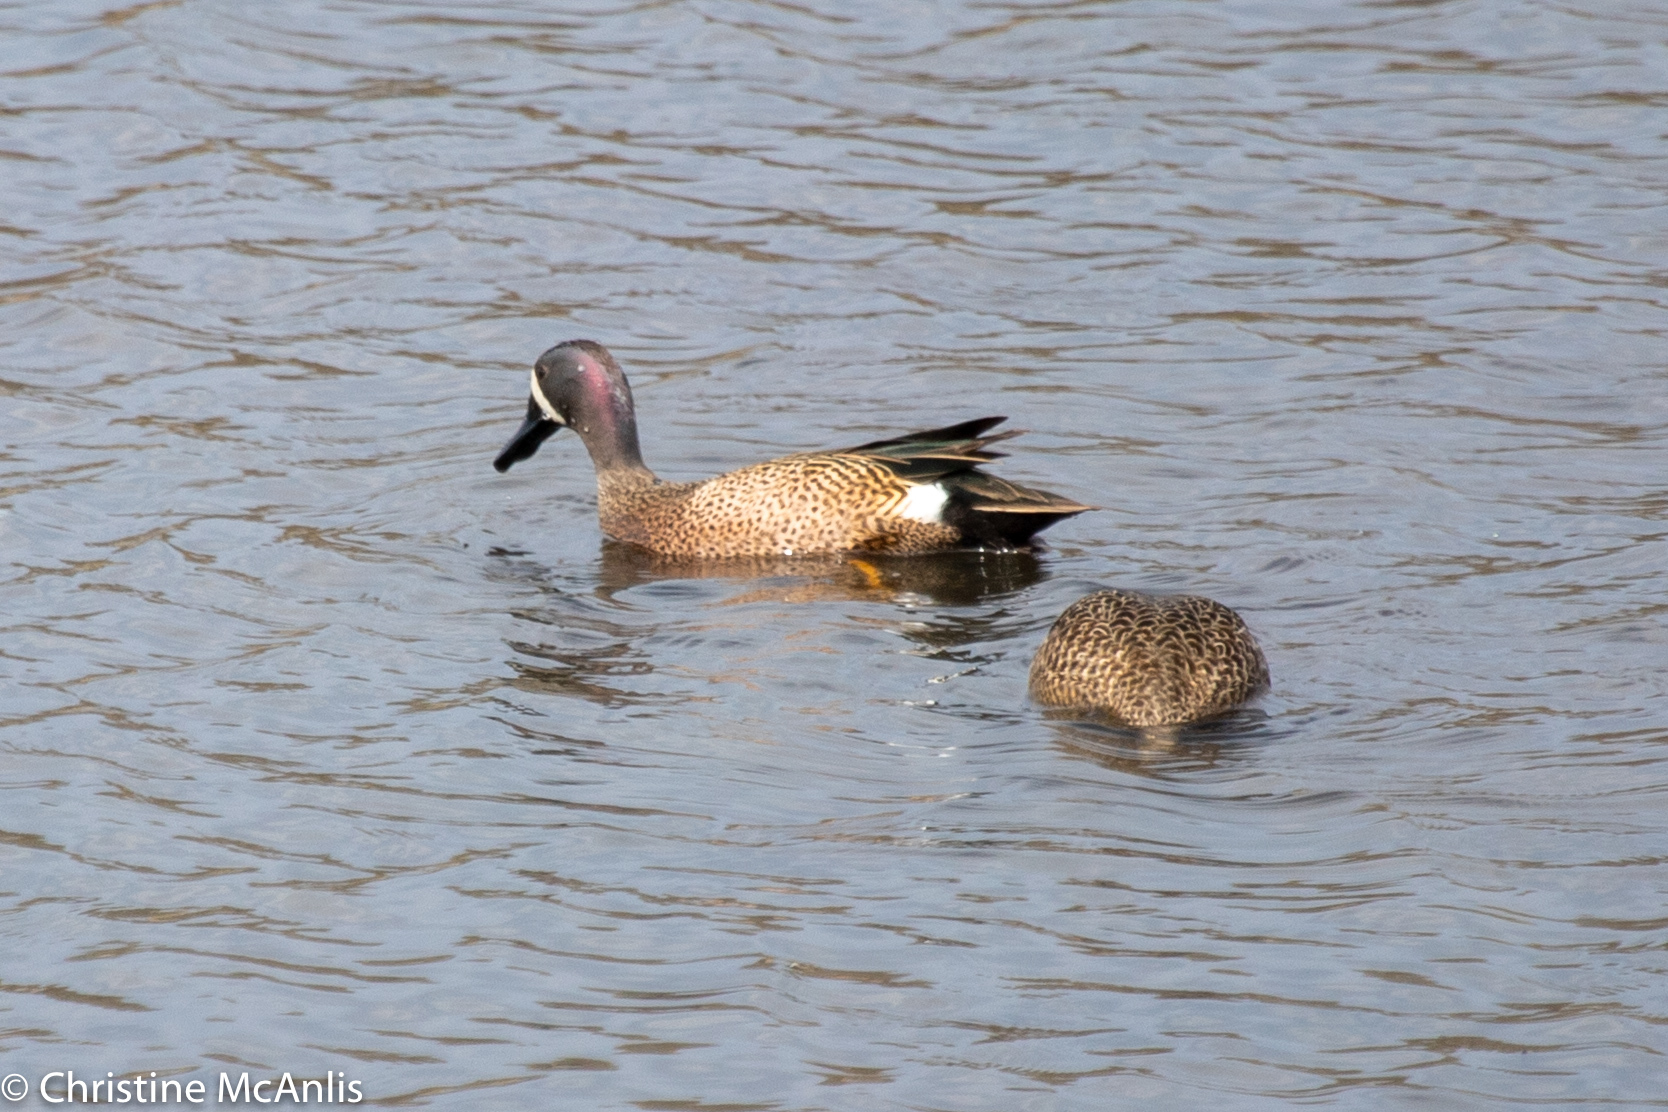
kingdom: Animalia
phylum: Chordata
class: Aves
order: Anseriformes
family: Anatidae
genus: Spatula
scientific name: Spatula discors
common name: Blue-winged teal
